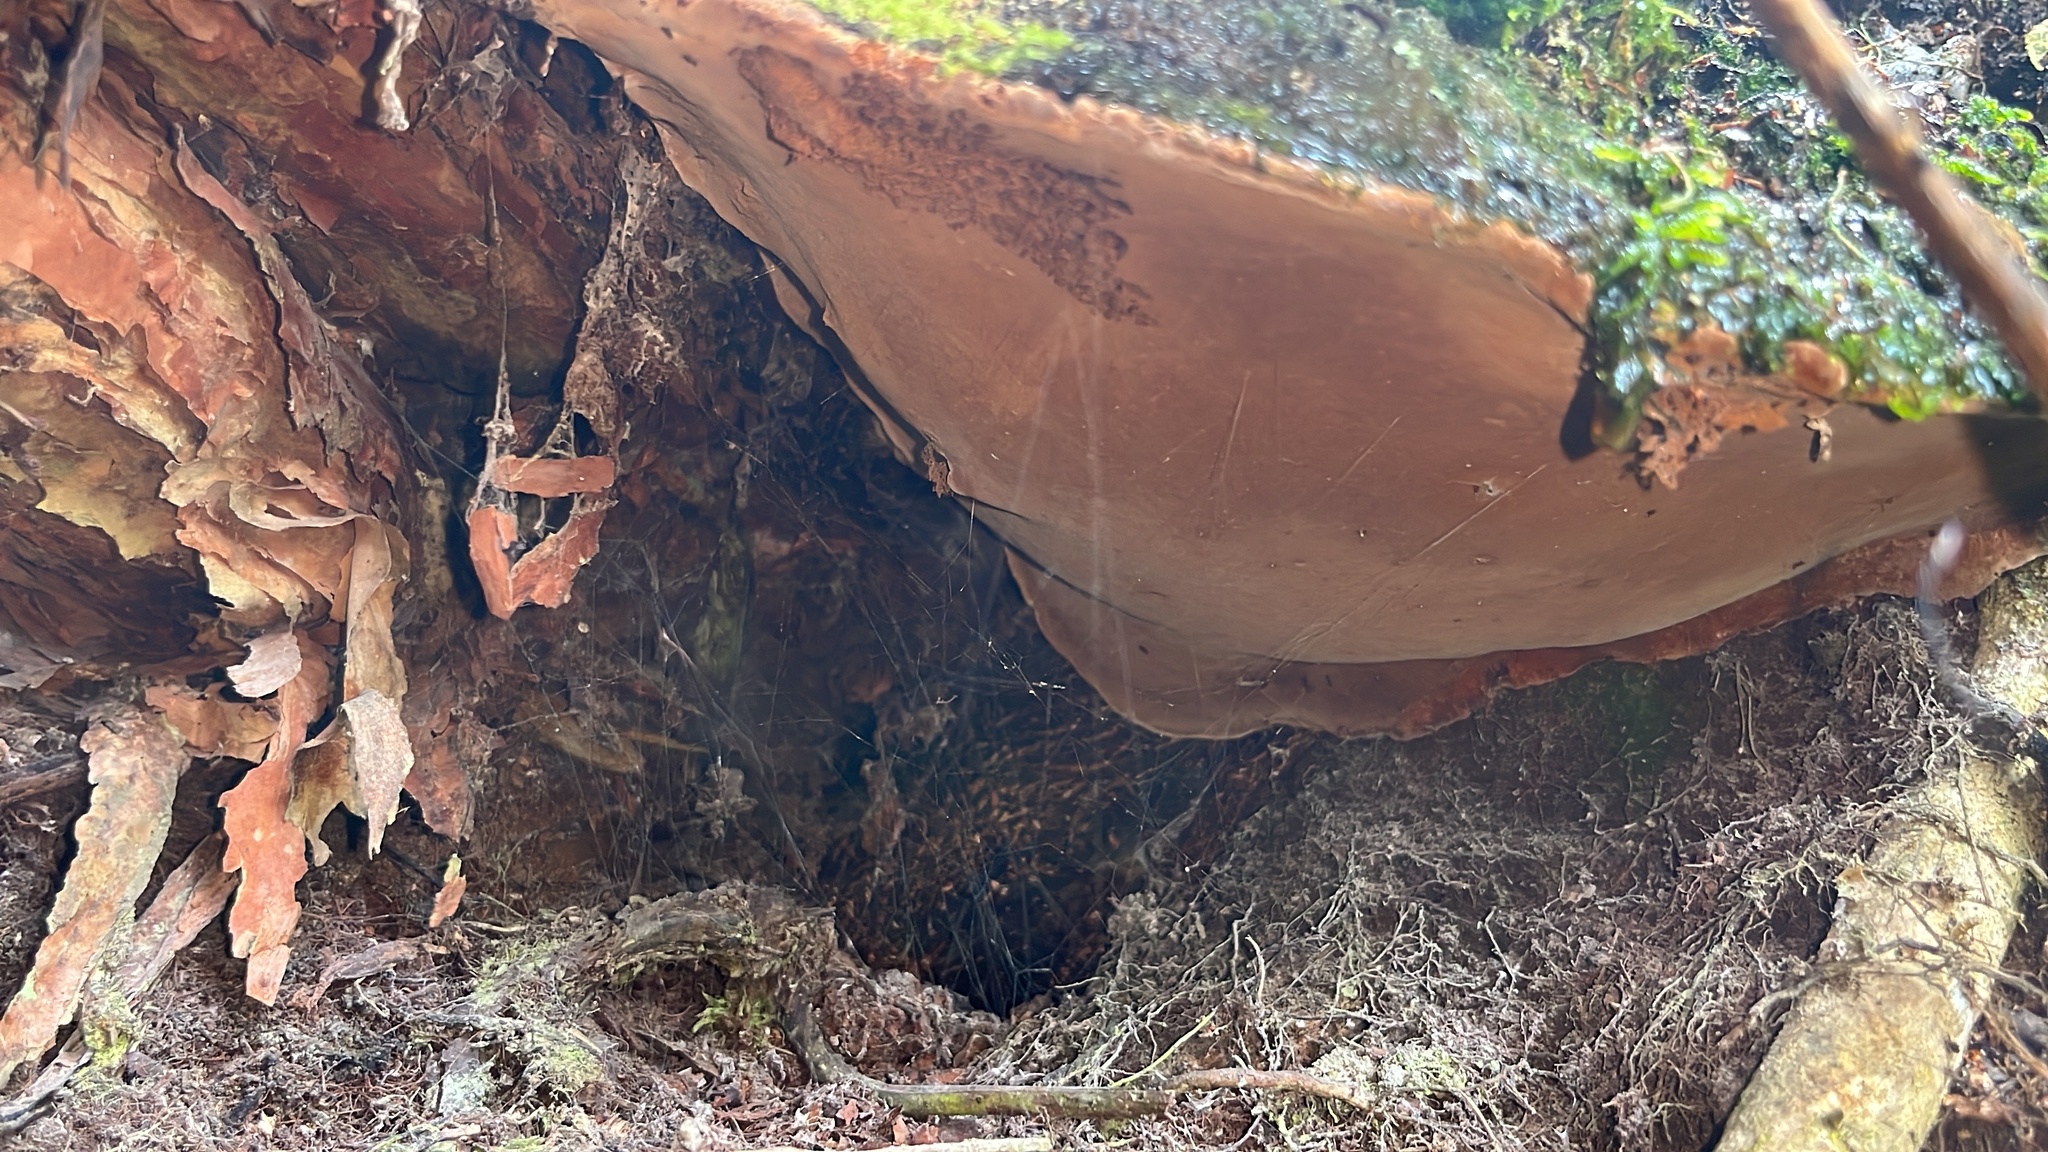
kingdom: Fungi
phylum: Basidiomycota
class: Agaricomycetes
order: Hymenochaetales
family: Hymenochaetaceae
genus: Fuscoporia
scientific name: Fuscoporia wahlbergii
